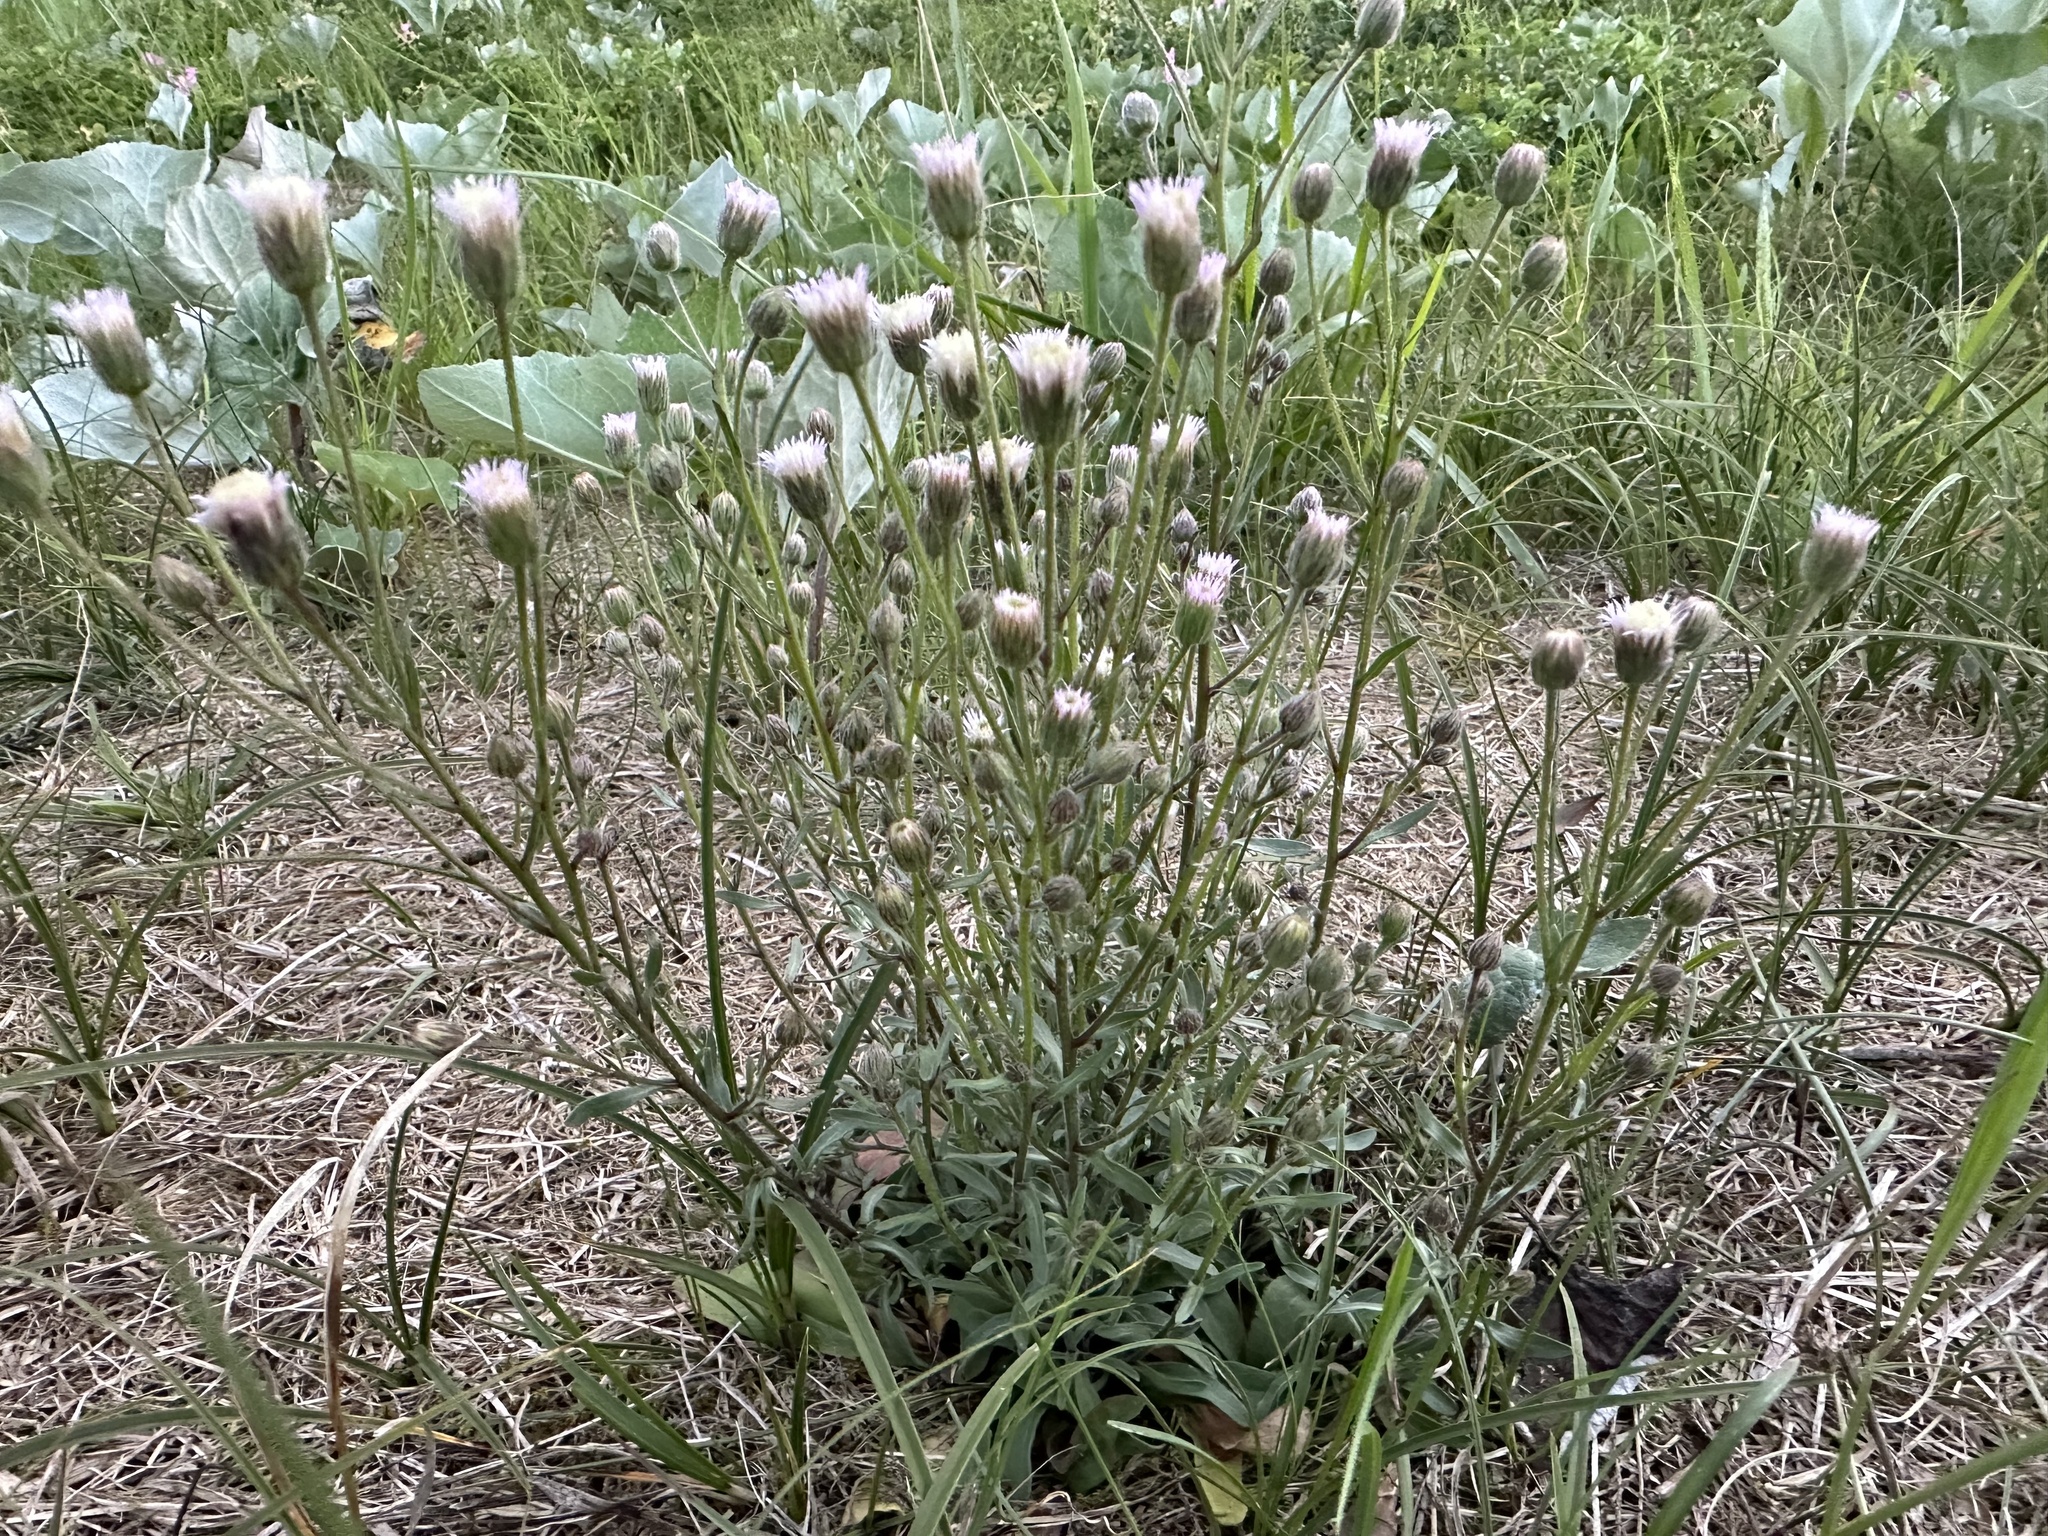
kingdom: Plantae
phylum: Tracheophyta
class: Magnoliopsida
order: Asterales
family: Asteraceae
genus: Erigeron
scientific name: Erigeron acris
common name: Blue fleabane
